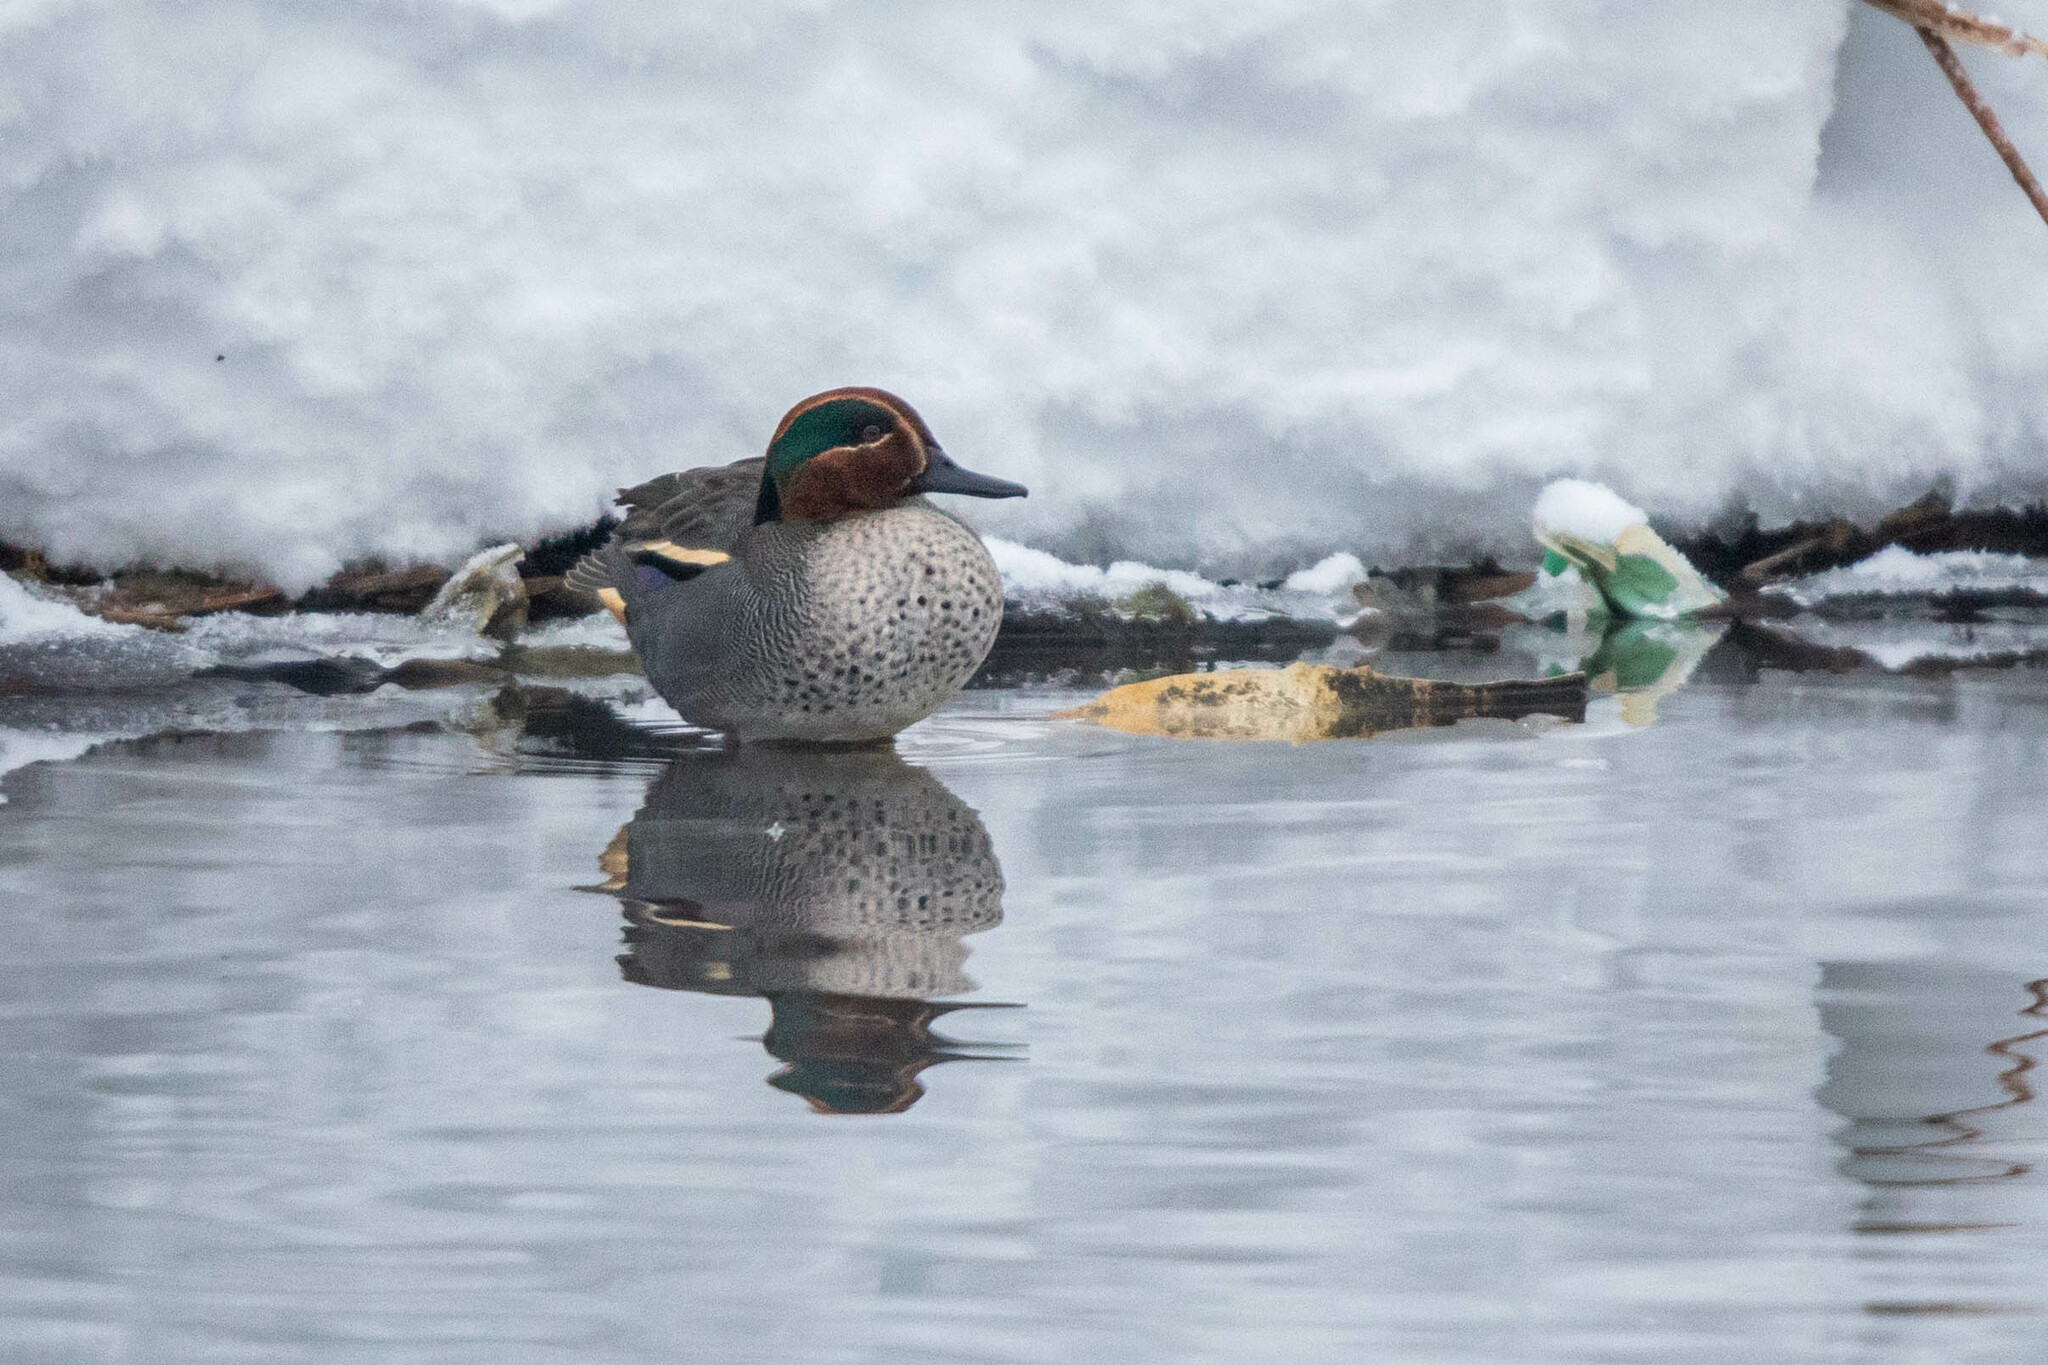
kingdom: Animalia
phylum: Chordata
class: Aves
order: Anseriformes
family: Anatidae
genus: Anas
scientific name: Anas crecca
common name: Eurasian teal
